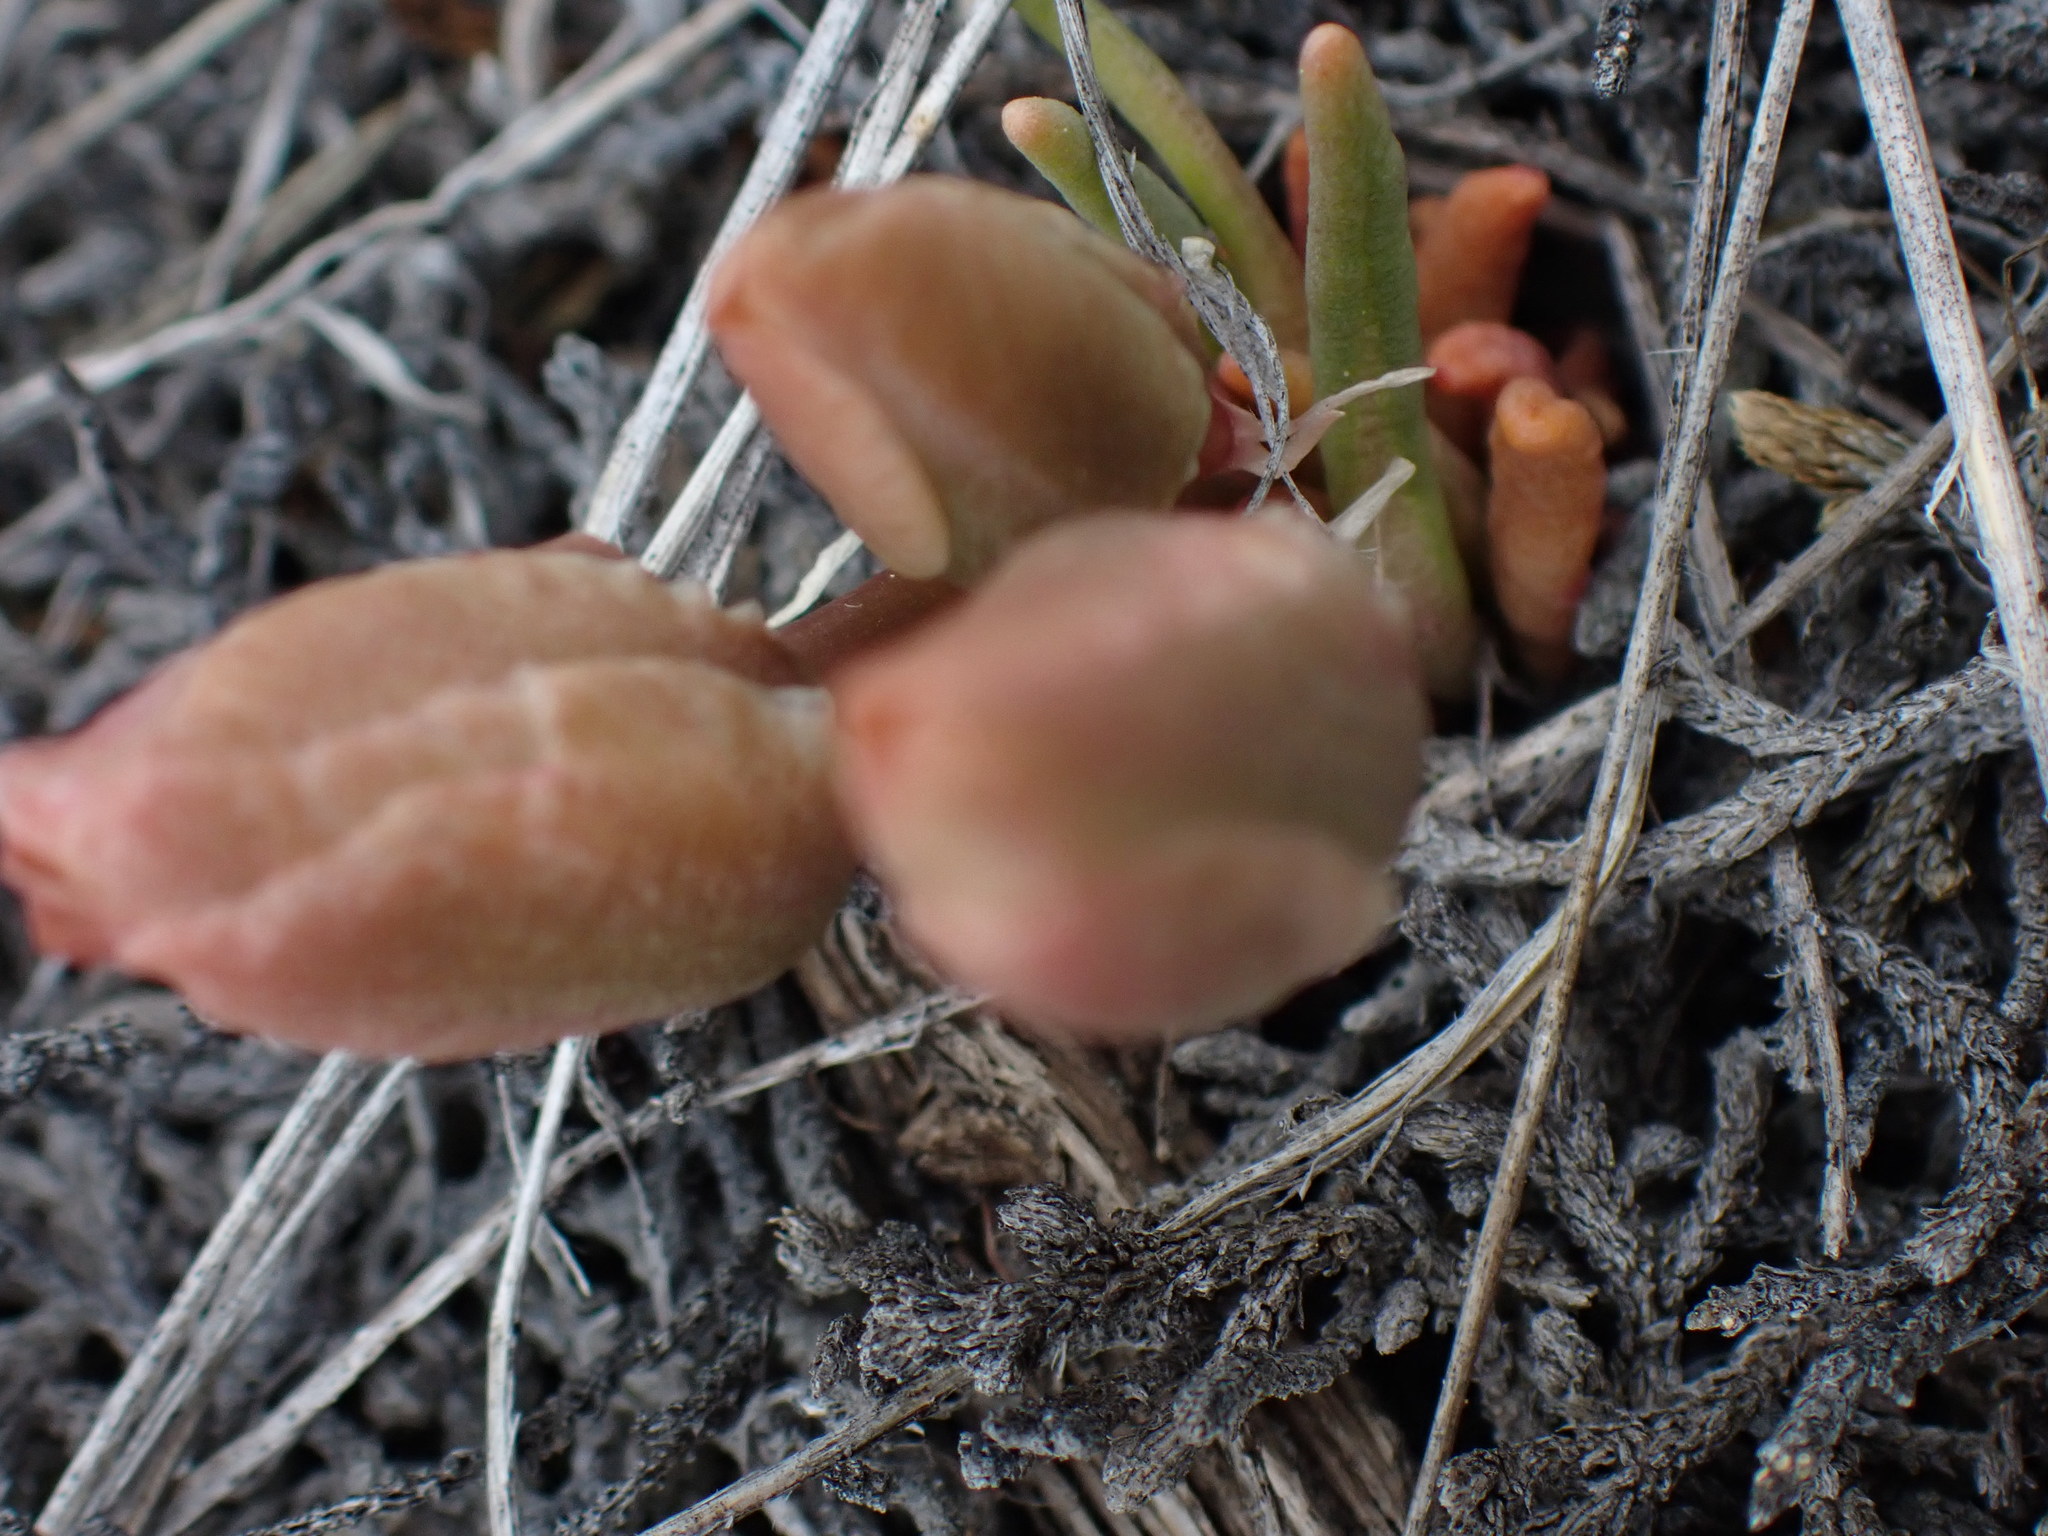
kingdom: Plantae
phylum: Tracheophyta
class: Magnoliopsida
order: Caryophyllales
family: Montiaceae
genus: Lewisia
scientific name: Lewisia rediviva
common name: Bitter-root
